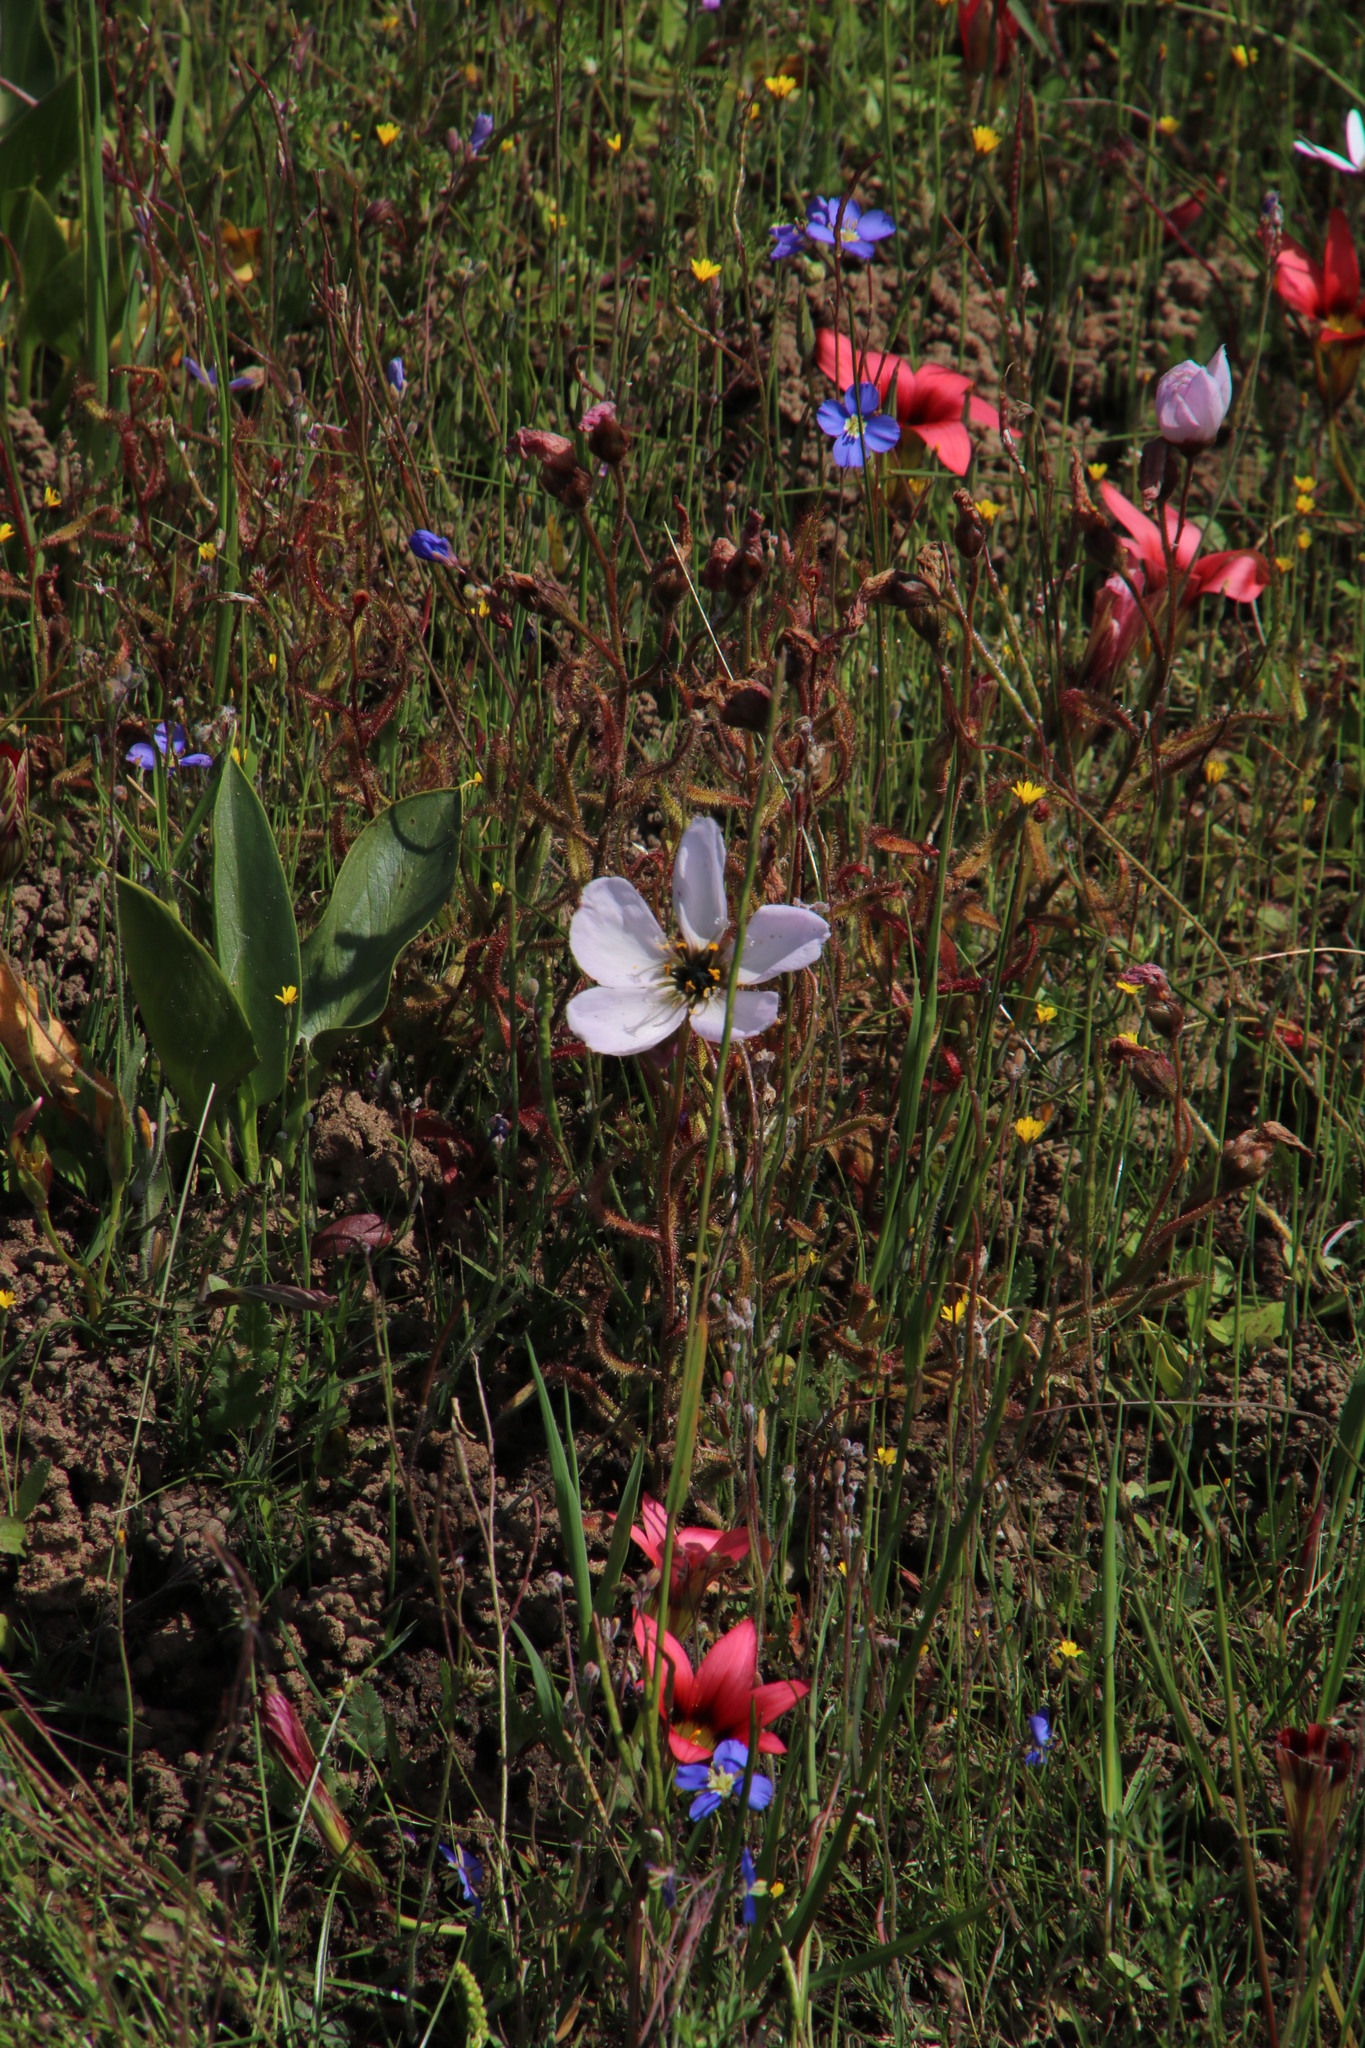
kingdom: Plantae
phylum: Tracheophyta
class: Magnoliopsida
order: Caryophyllales
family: Droseraceae
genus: Drosera
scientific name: Drosera cistiflora
